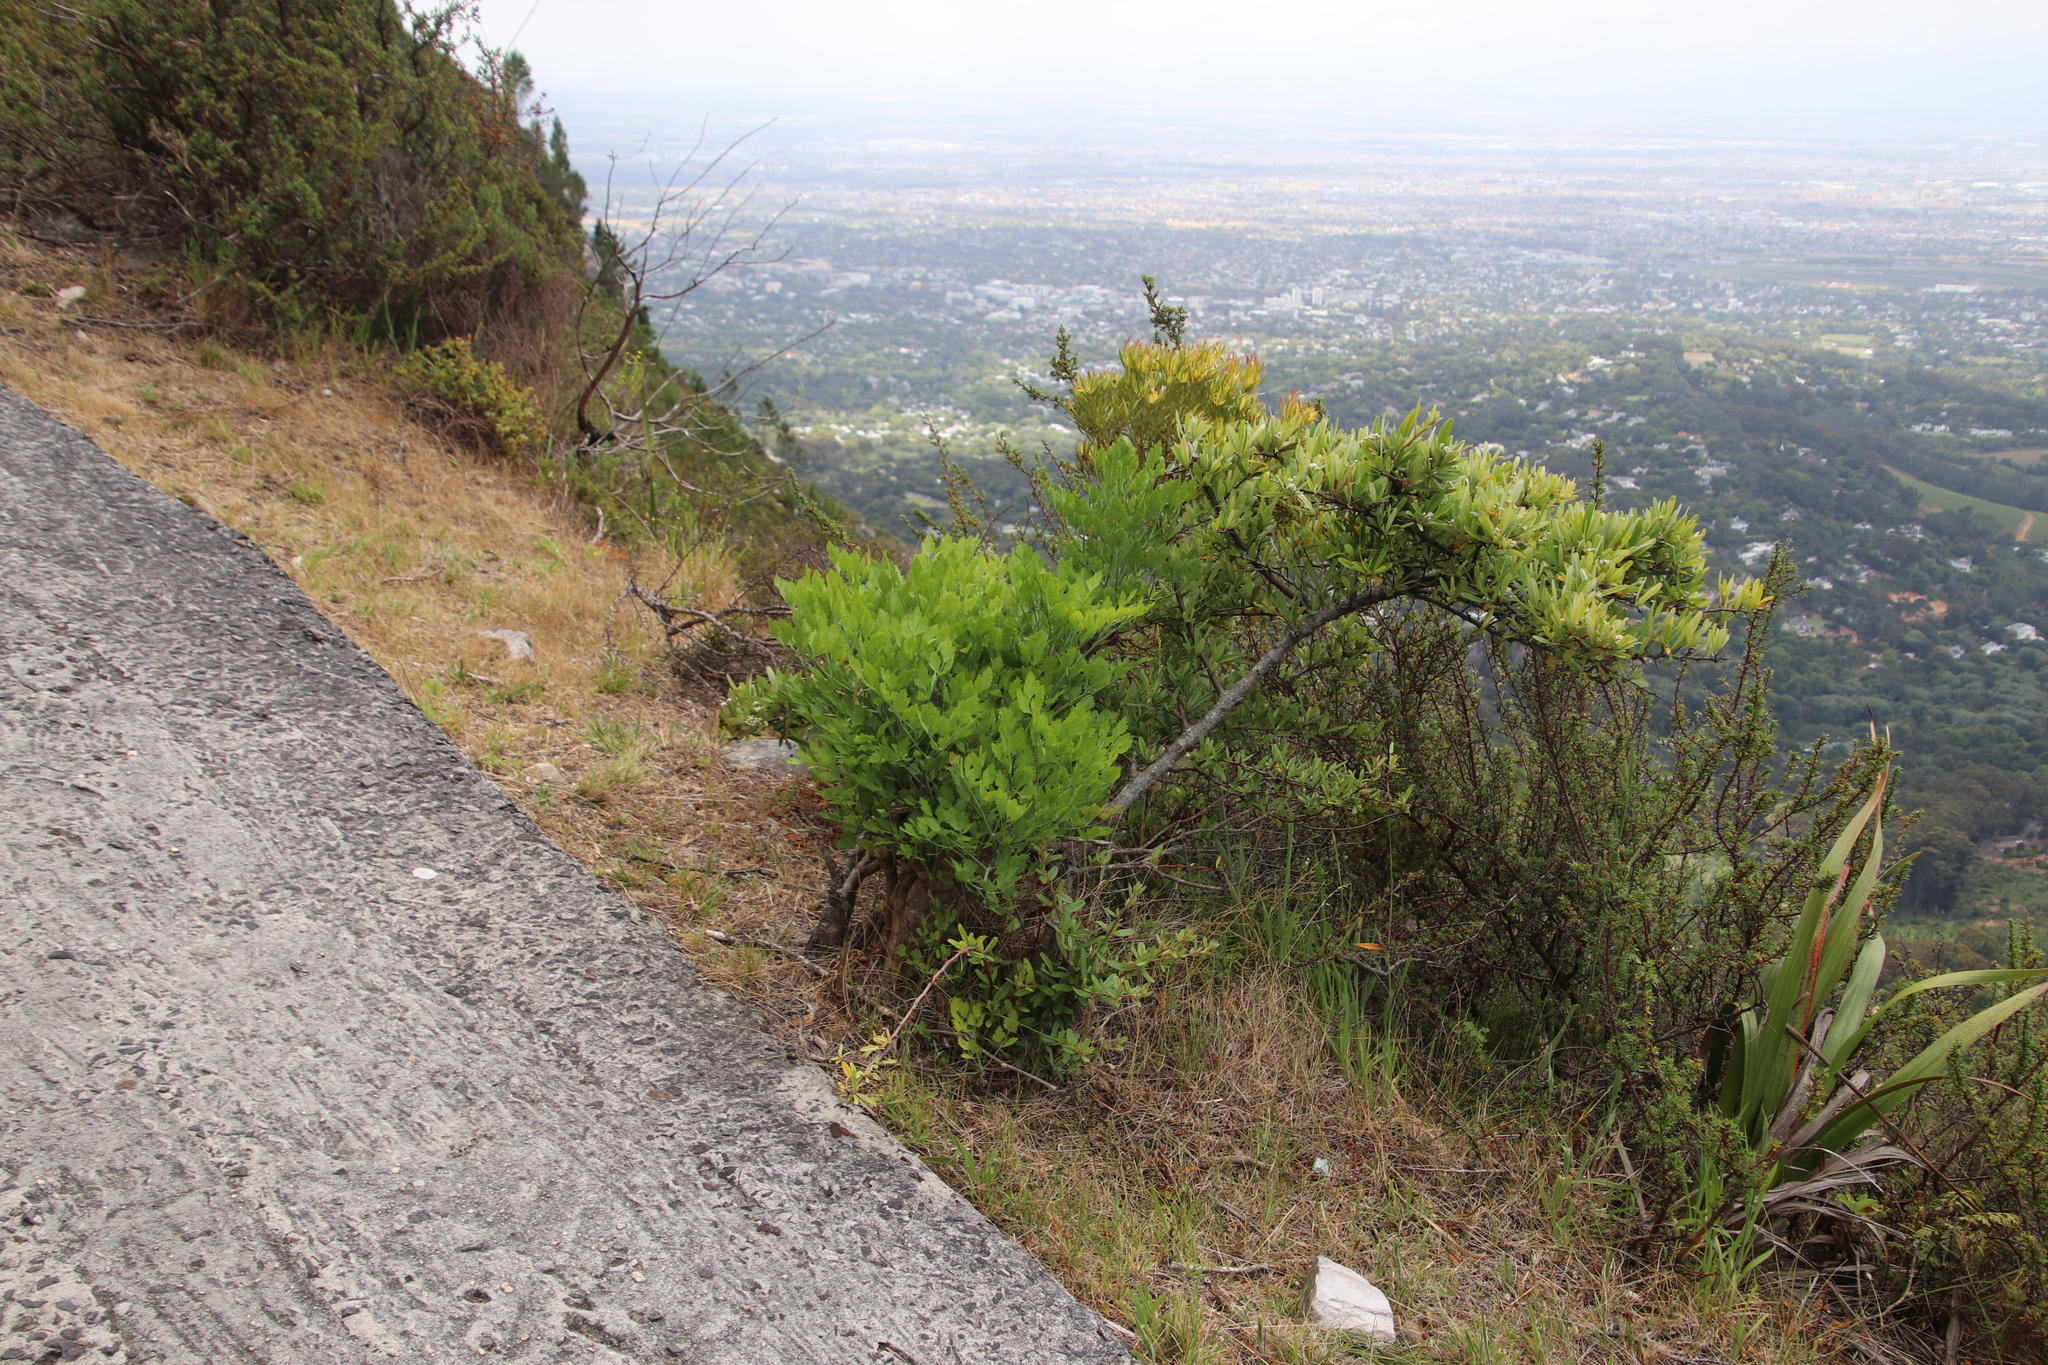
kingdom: Plantae
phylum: Tracheophyta
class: Magnoliopsida
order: Apiales
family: Apiaceae
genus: Notobubon
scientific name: Notobubon galbanum
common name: Blisterbush
